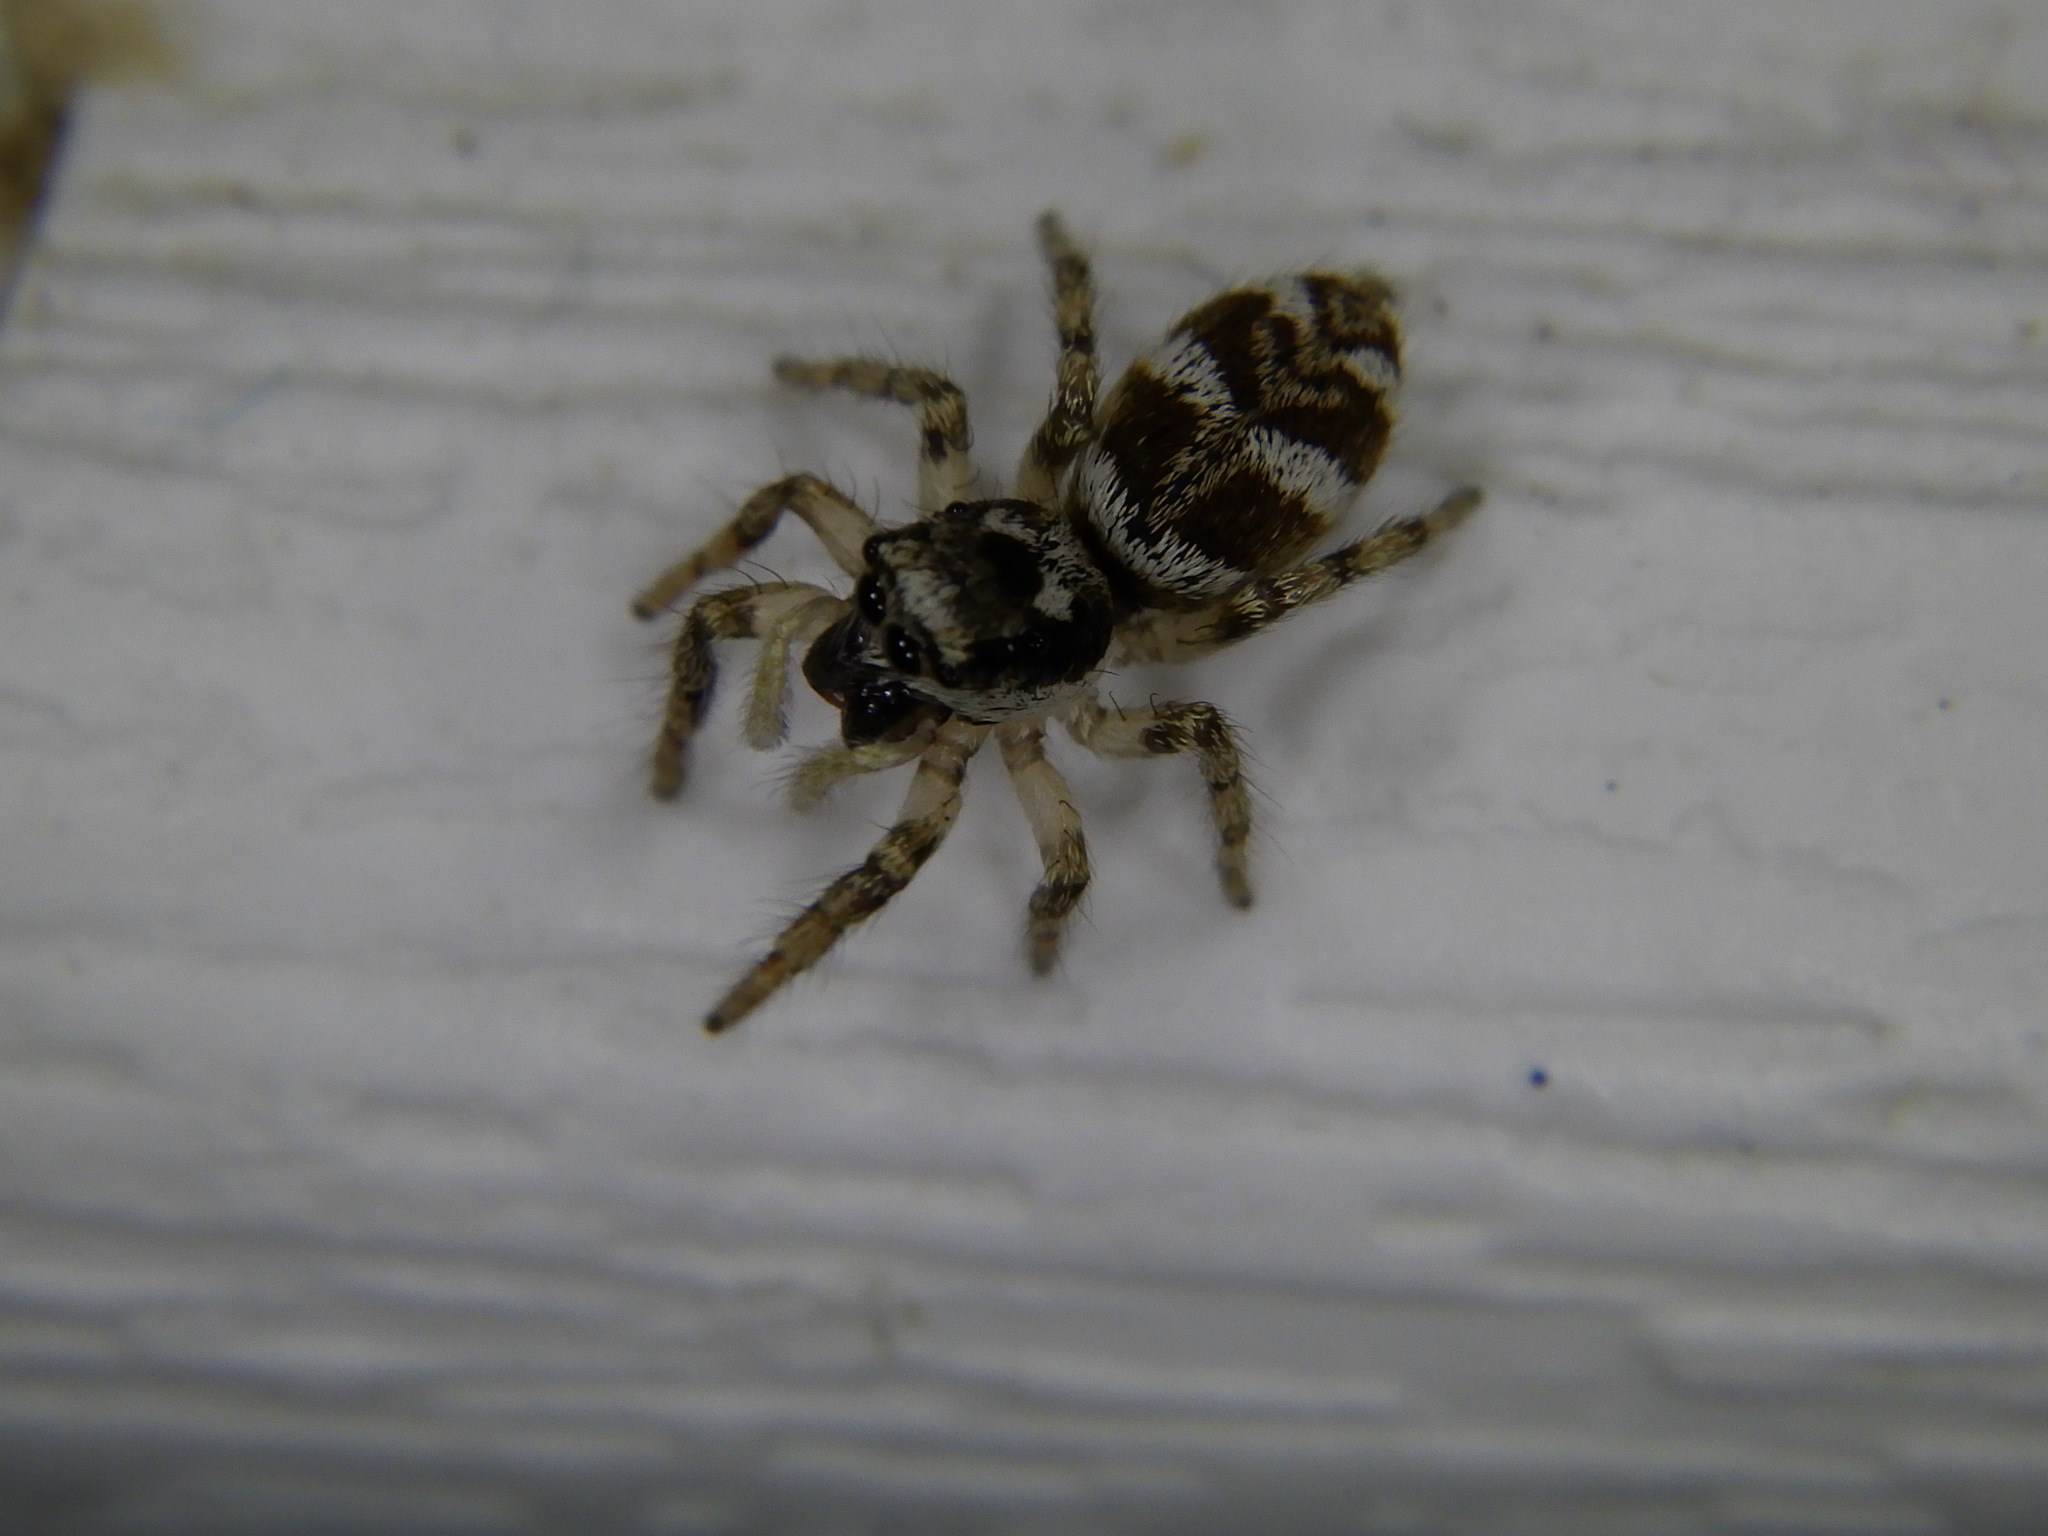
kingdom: Animalia
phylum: Arthropoda
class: Arachnida
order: Araneae
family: Salticidae
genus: Salticus
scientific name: Salticus scenicus
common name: Zebra jumper
